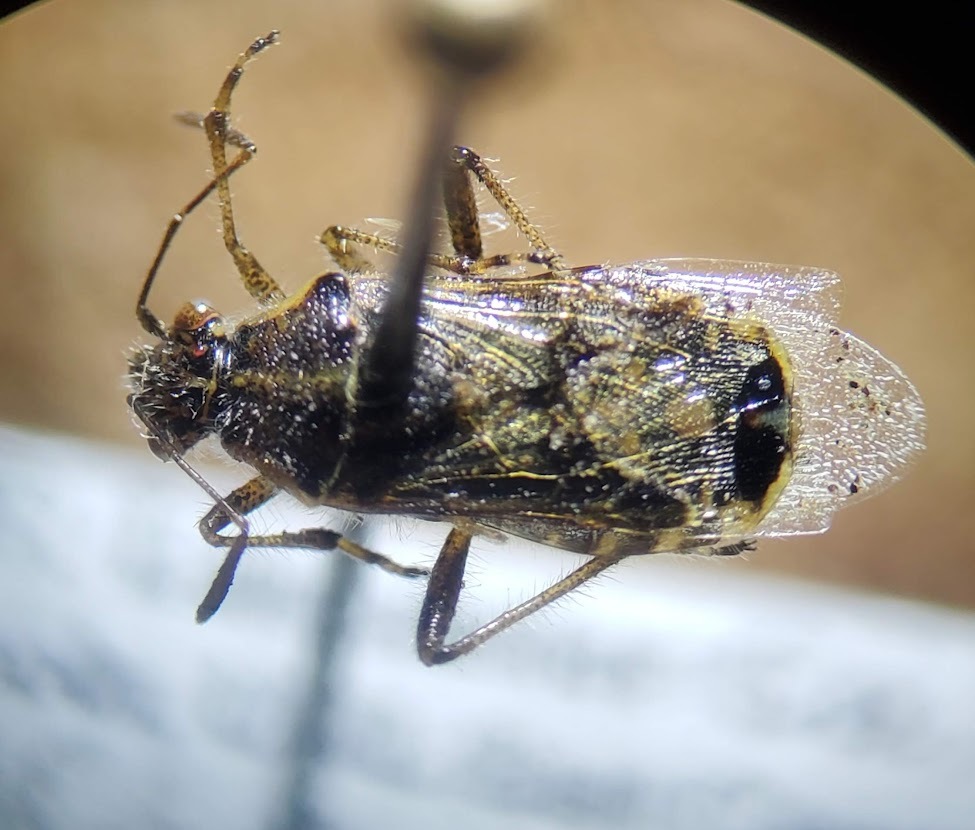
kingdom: Animalia
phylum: Arthropoda
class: Insecta
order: Hemiptera
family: Rhopalidae
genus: Liorhyssus
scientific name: Liorhyssus hyalinus
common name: Scentless plant bug
